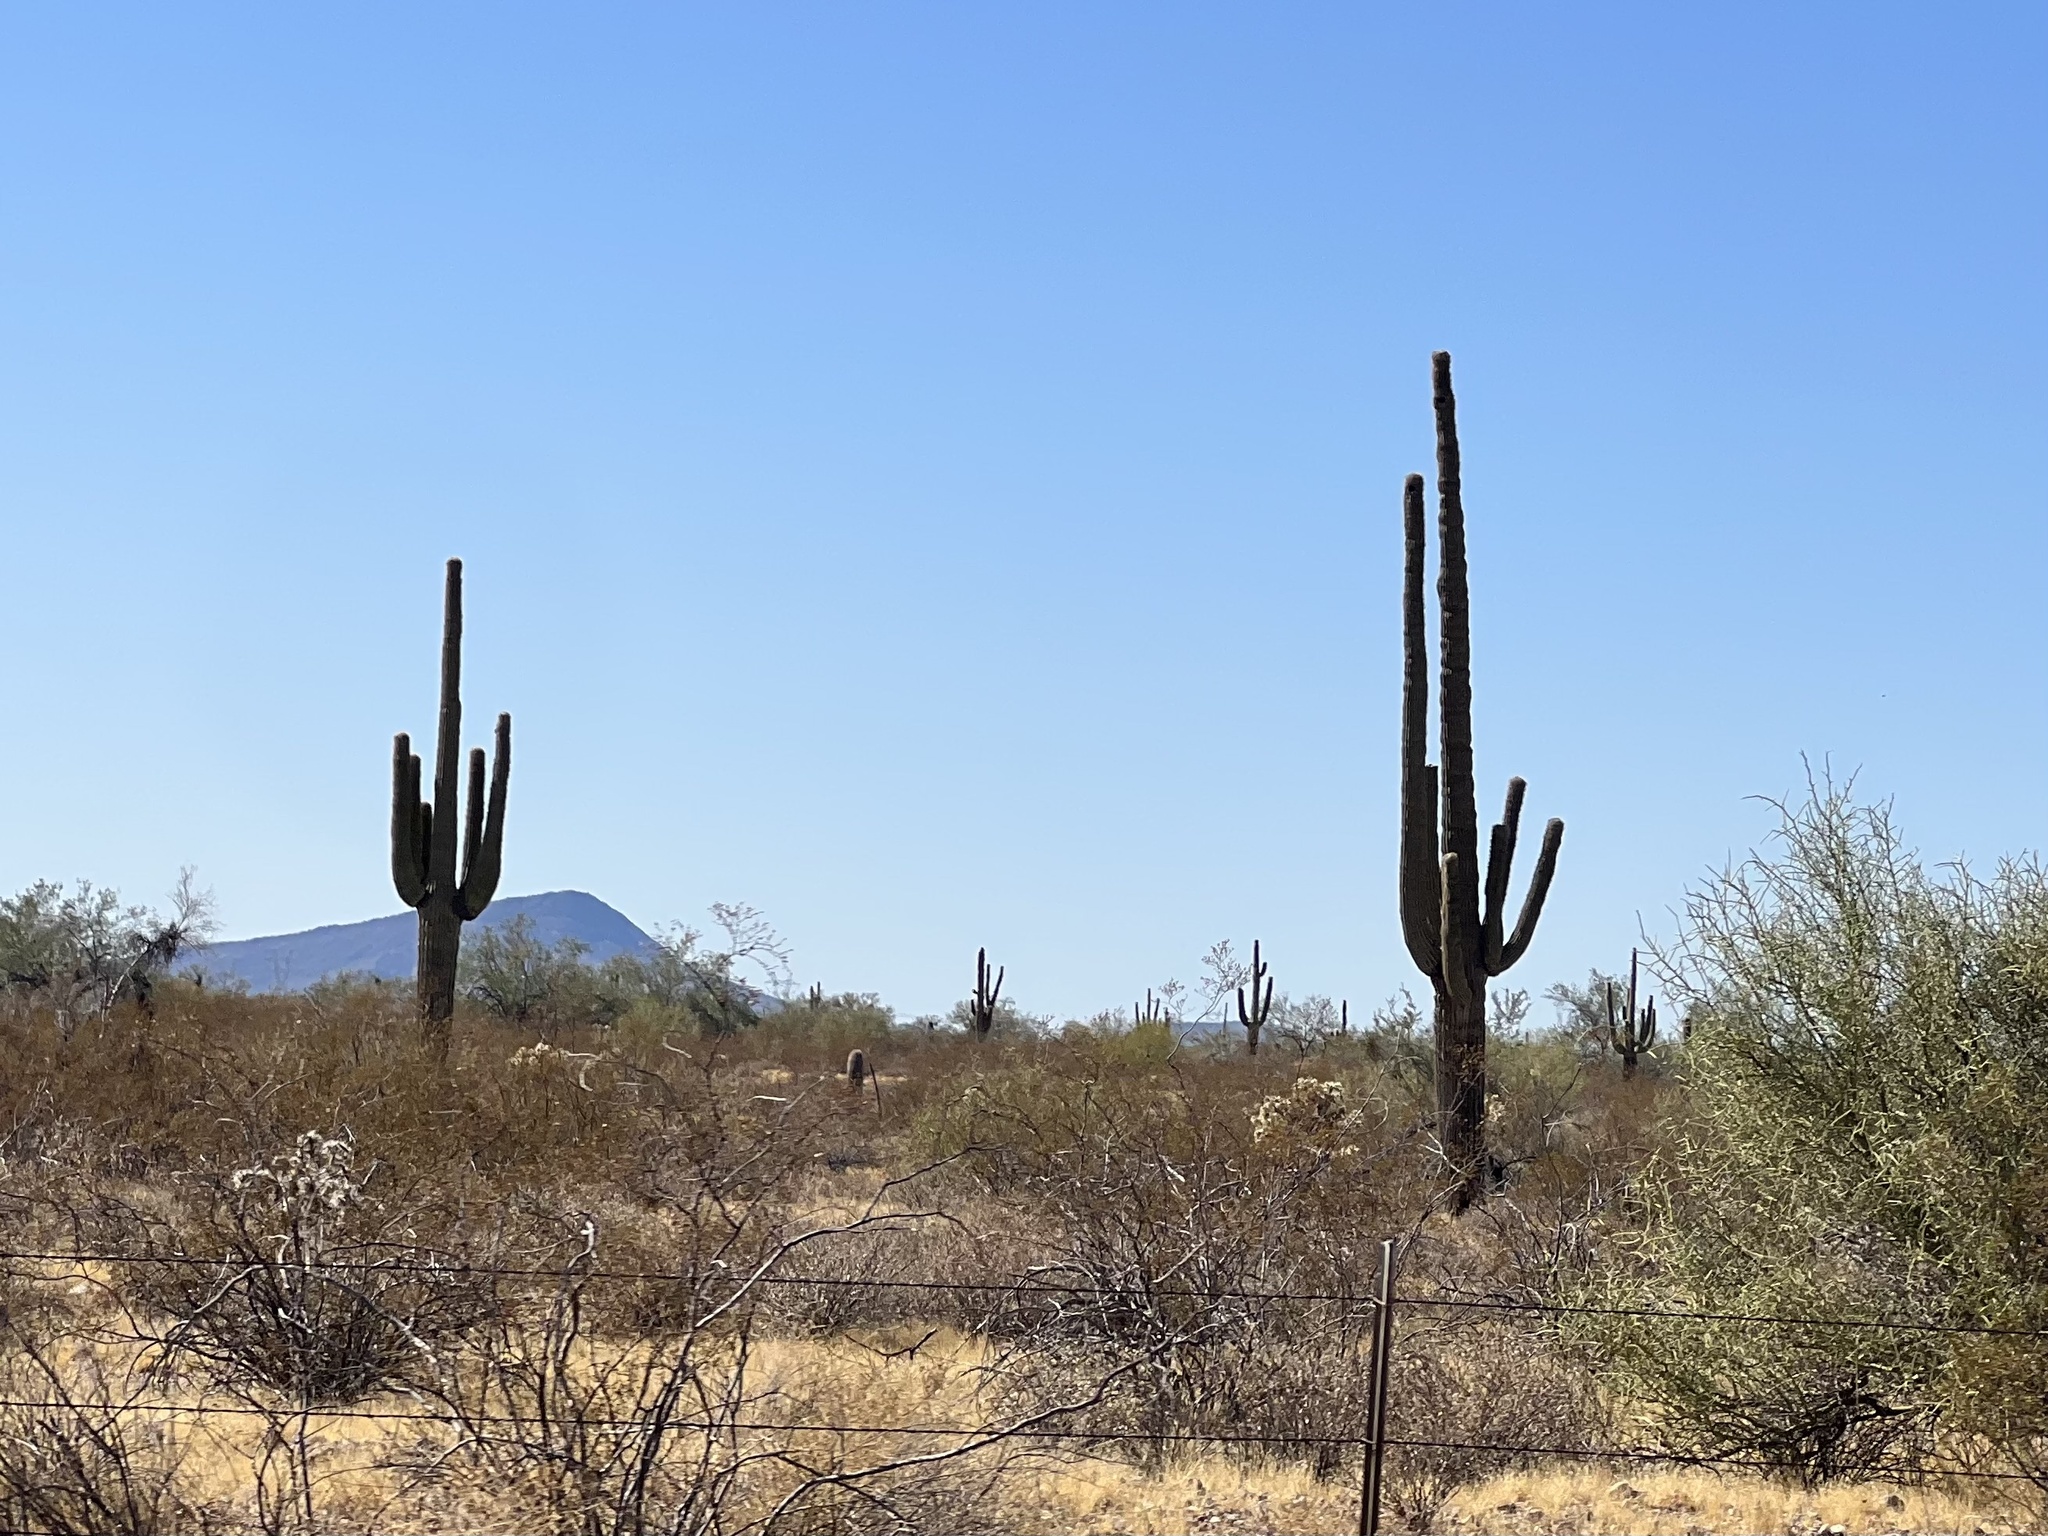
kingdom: Plantae
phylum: Tracheophyta
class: Magnoliopsida
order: Caryophyllales
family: Cactaceae
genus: Carnegiea
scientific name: Carnegiea gigantea
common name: Saguaro
